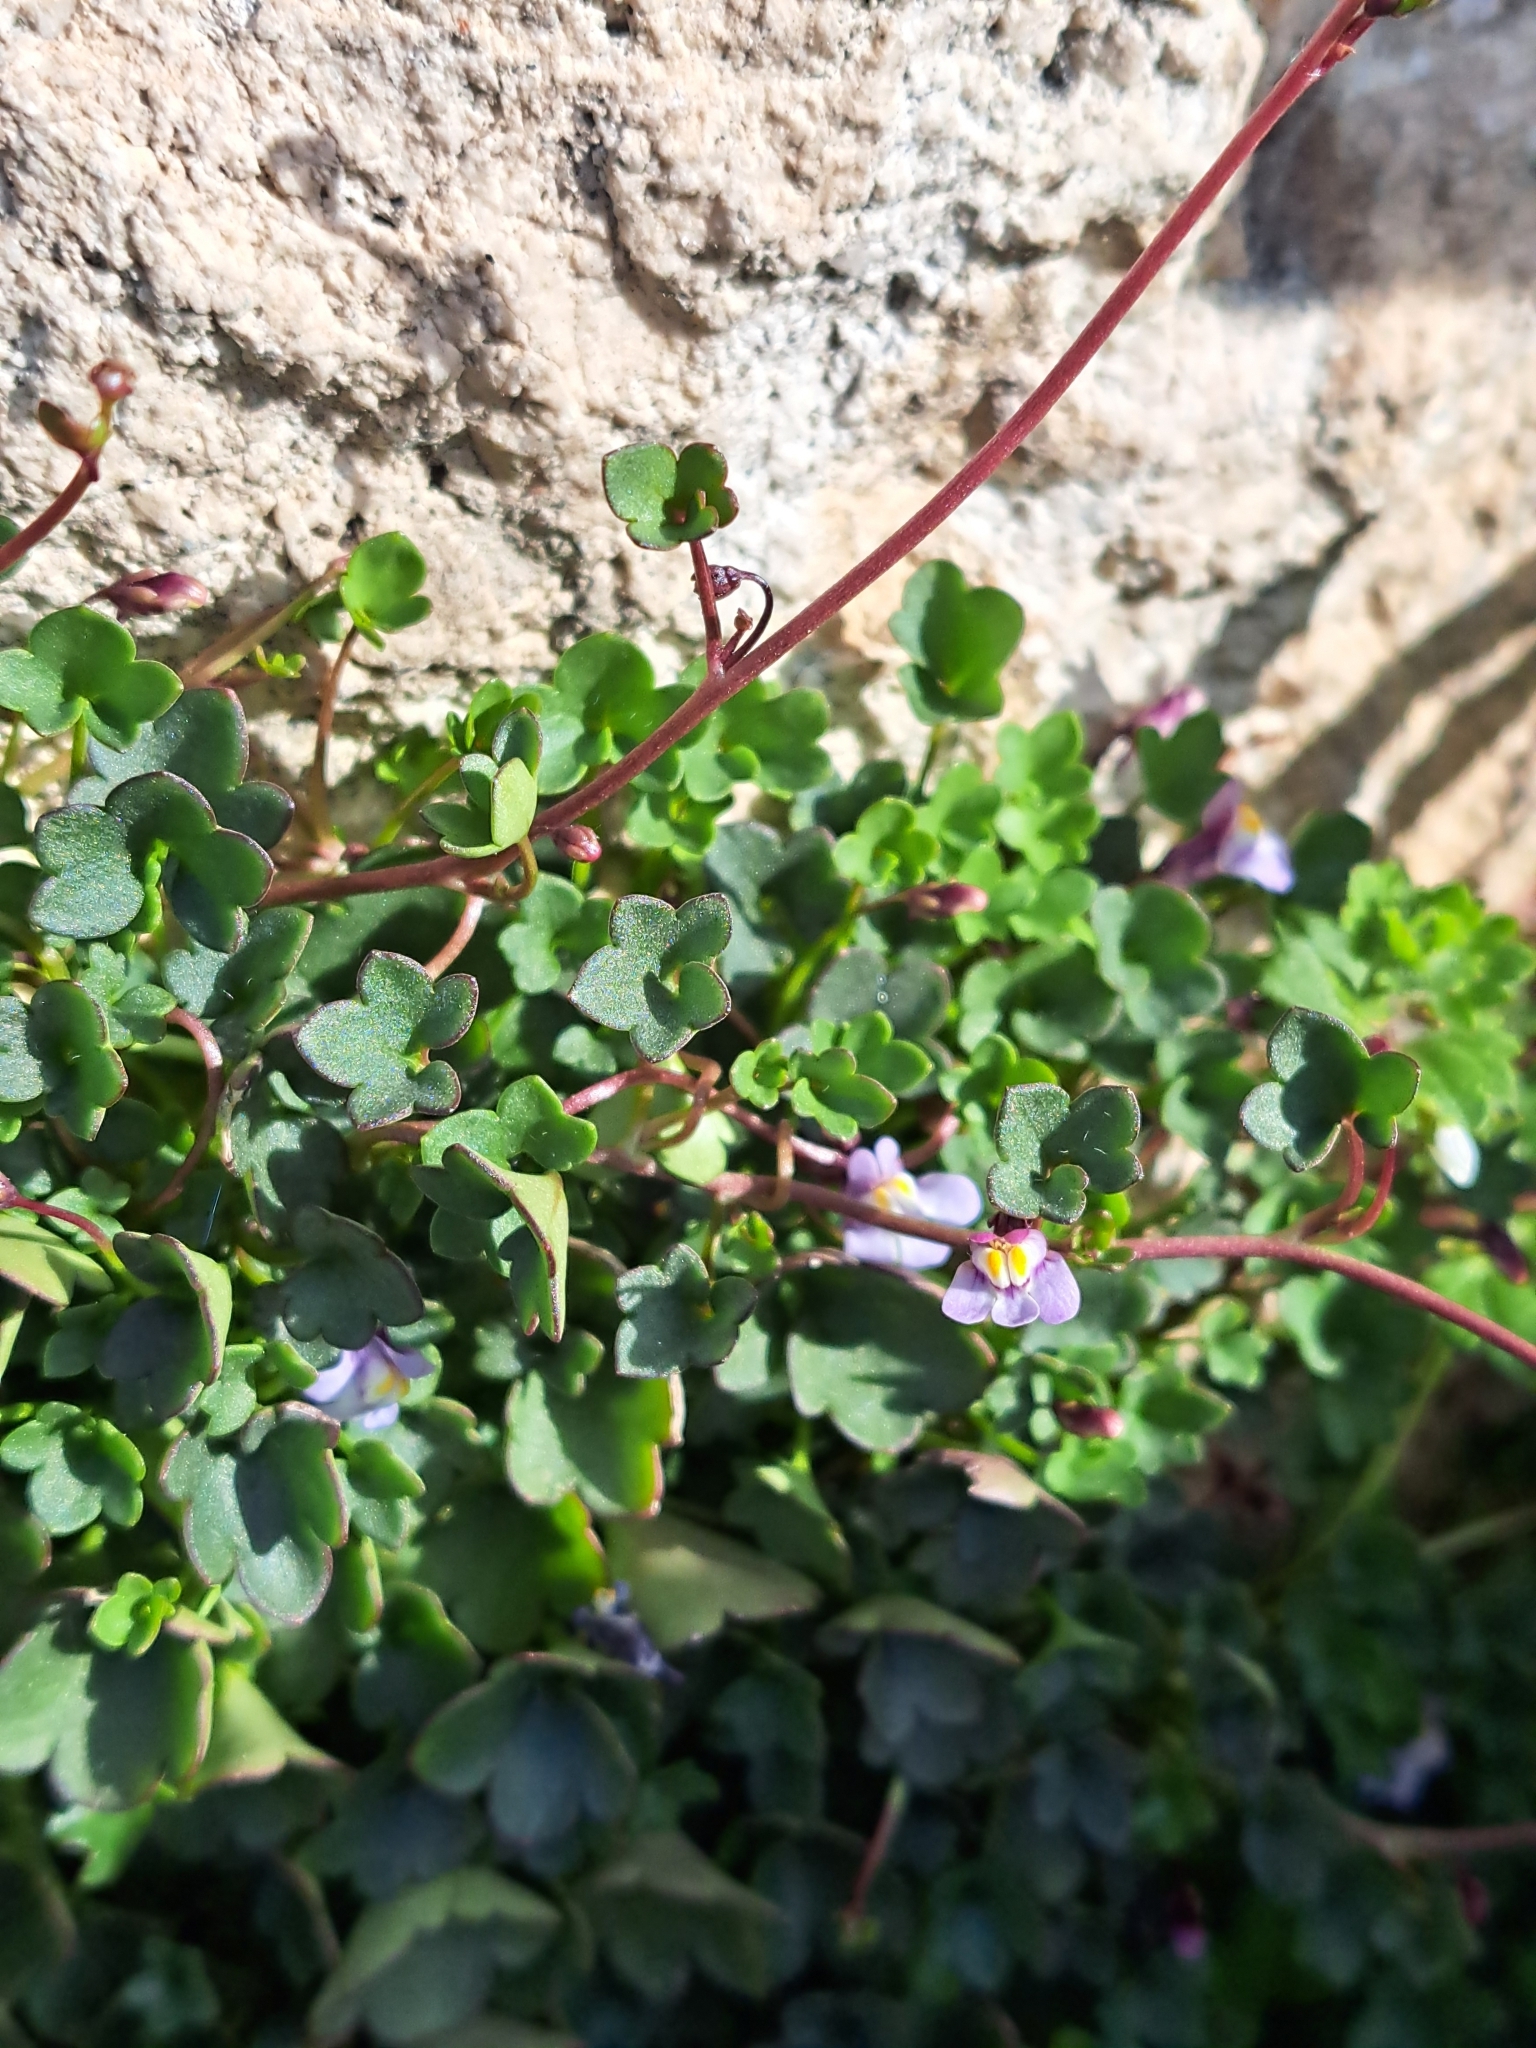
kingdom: Plantae
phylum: Tracheophyta
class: Magnoliopsida
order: Lamiales
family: Plantaginaceae
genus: Cymbalaria
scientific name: Cymbalaria muralis
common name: Ivy-leaved toadflax
